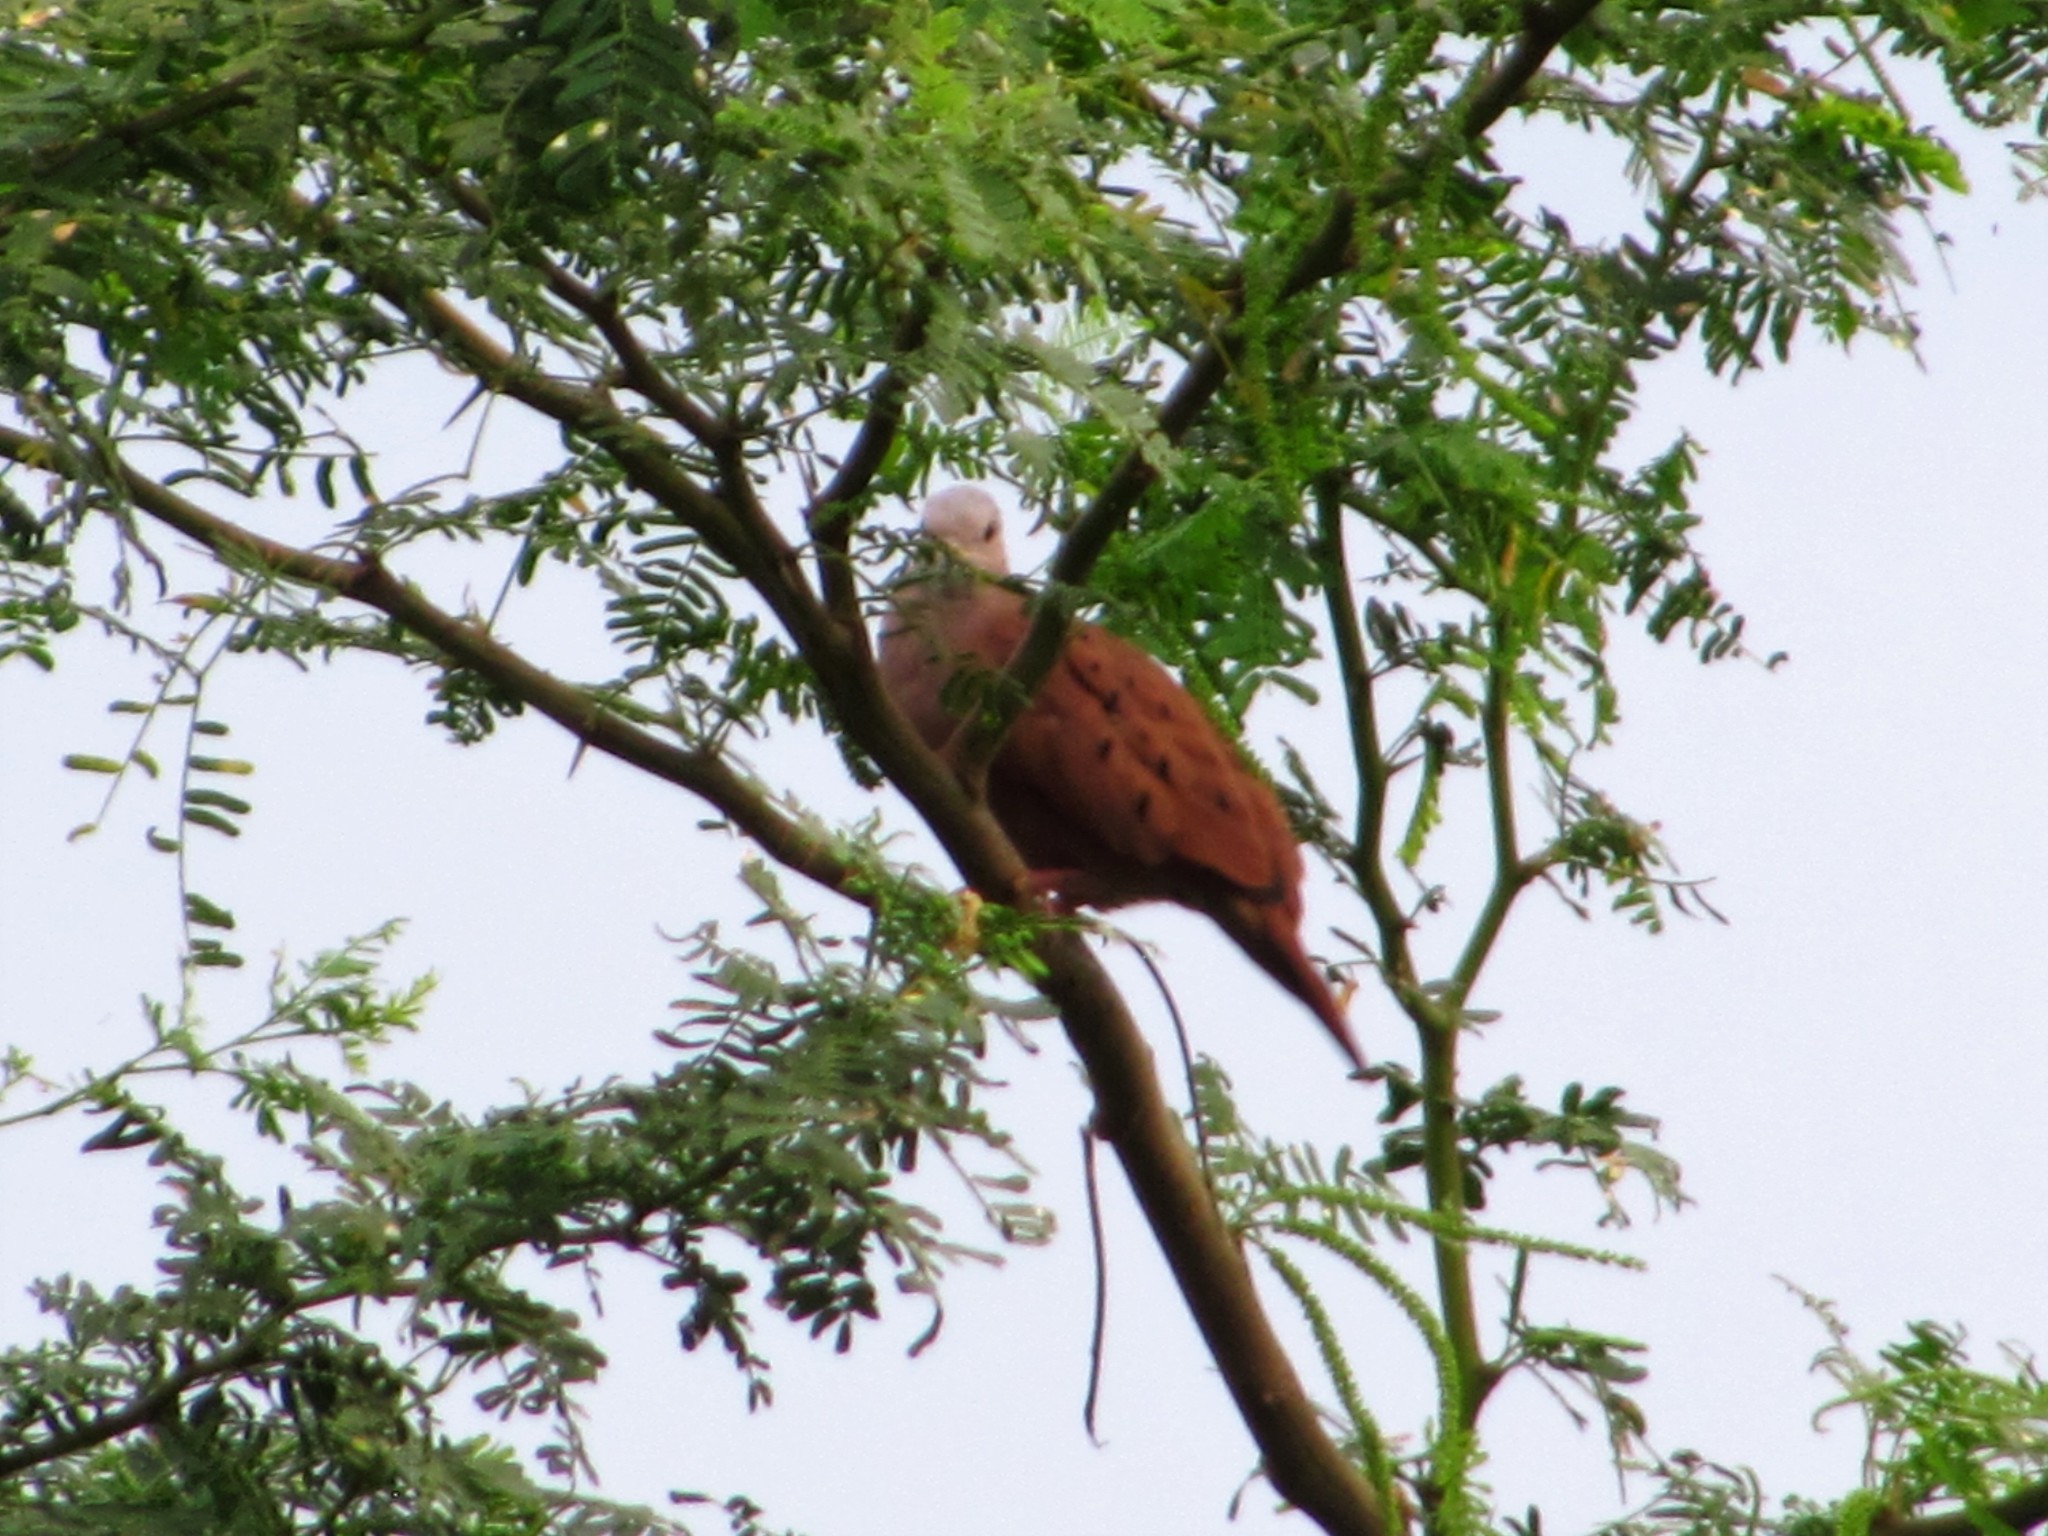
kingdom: Animalia
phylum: Chordata
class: Aves
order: Columbiformes
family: Columbidae
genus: Columbina
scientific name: Columbina talpacoti
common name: Ruddy ground dove
